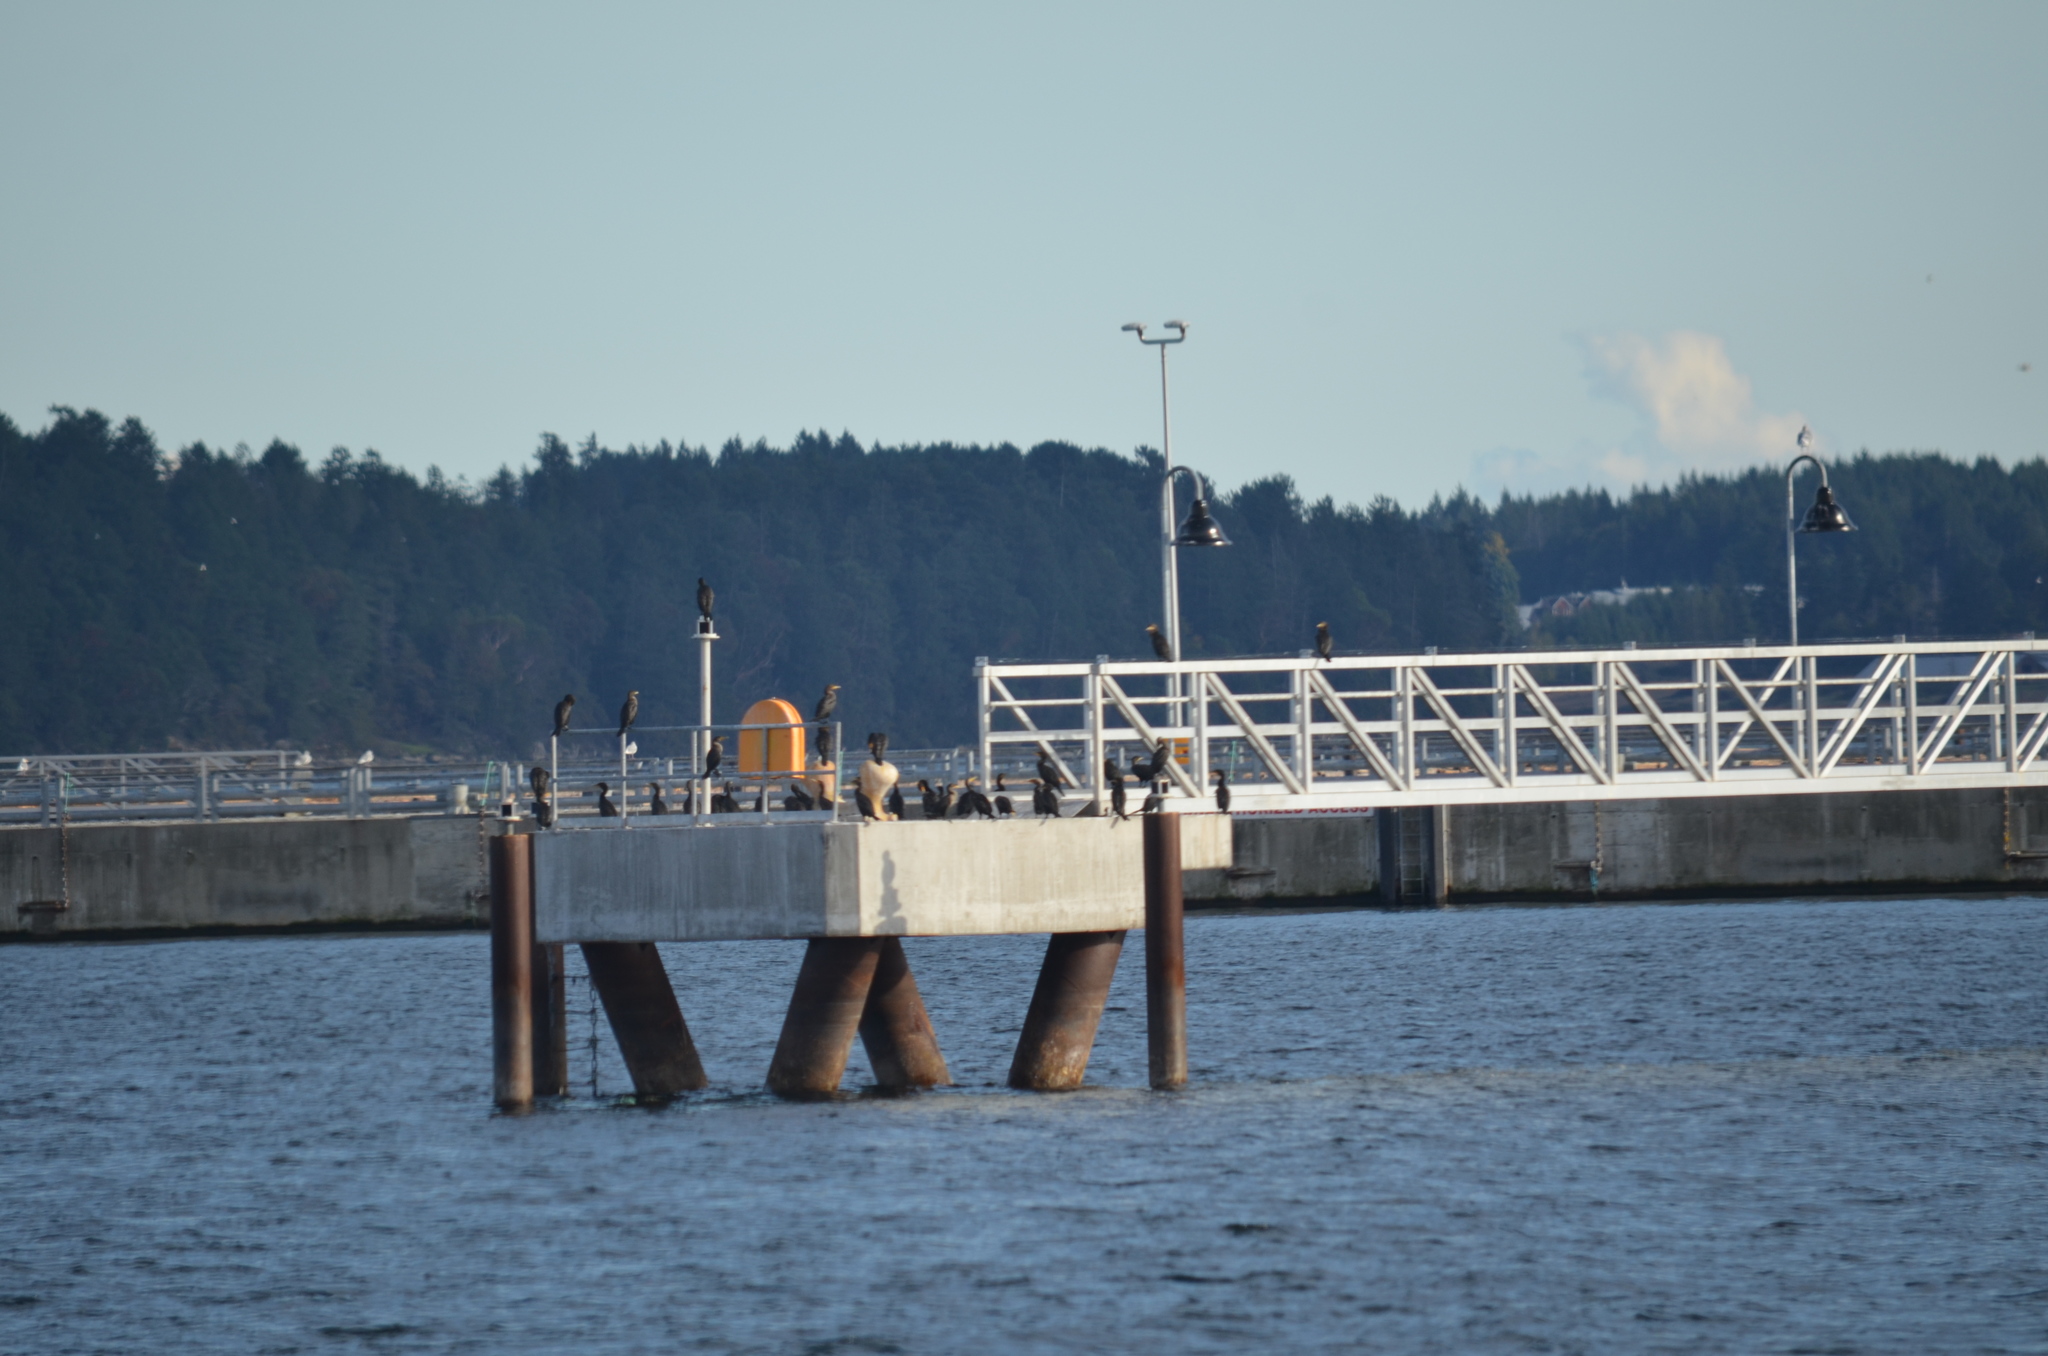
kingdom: Animalia
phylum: Chordata
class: Aves
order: Suliformes
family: Phalacrocoracidae
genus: Phalacrocorax
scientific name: Phalacrocorax auritus
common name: Double-crested cormorant
